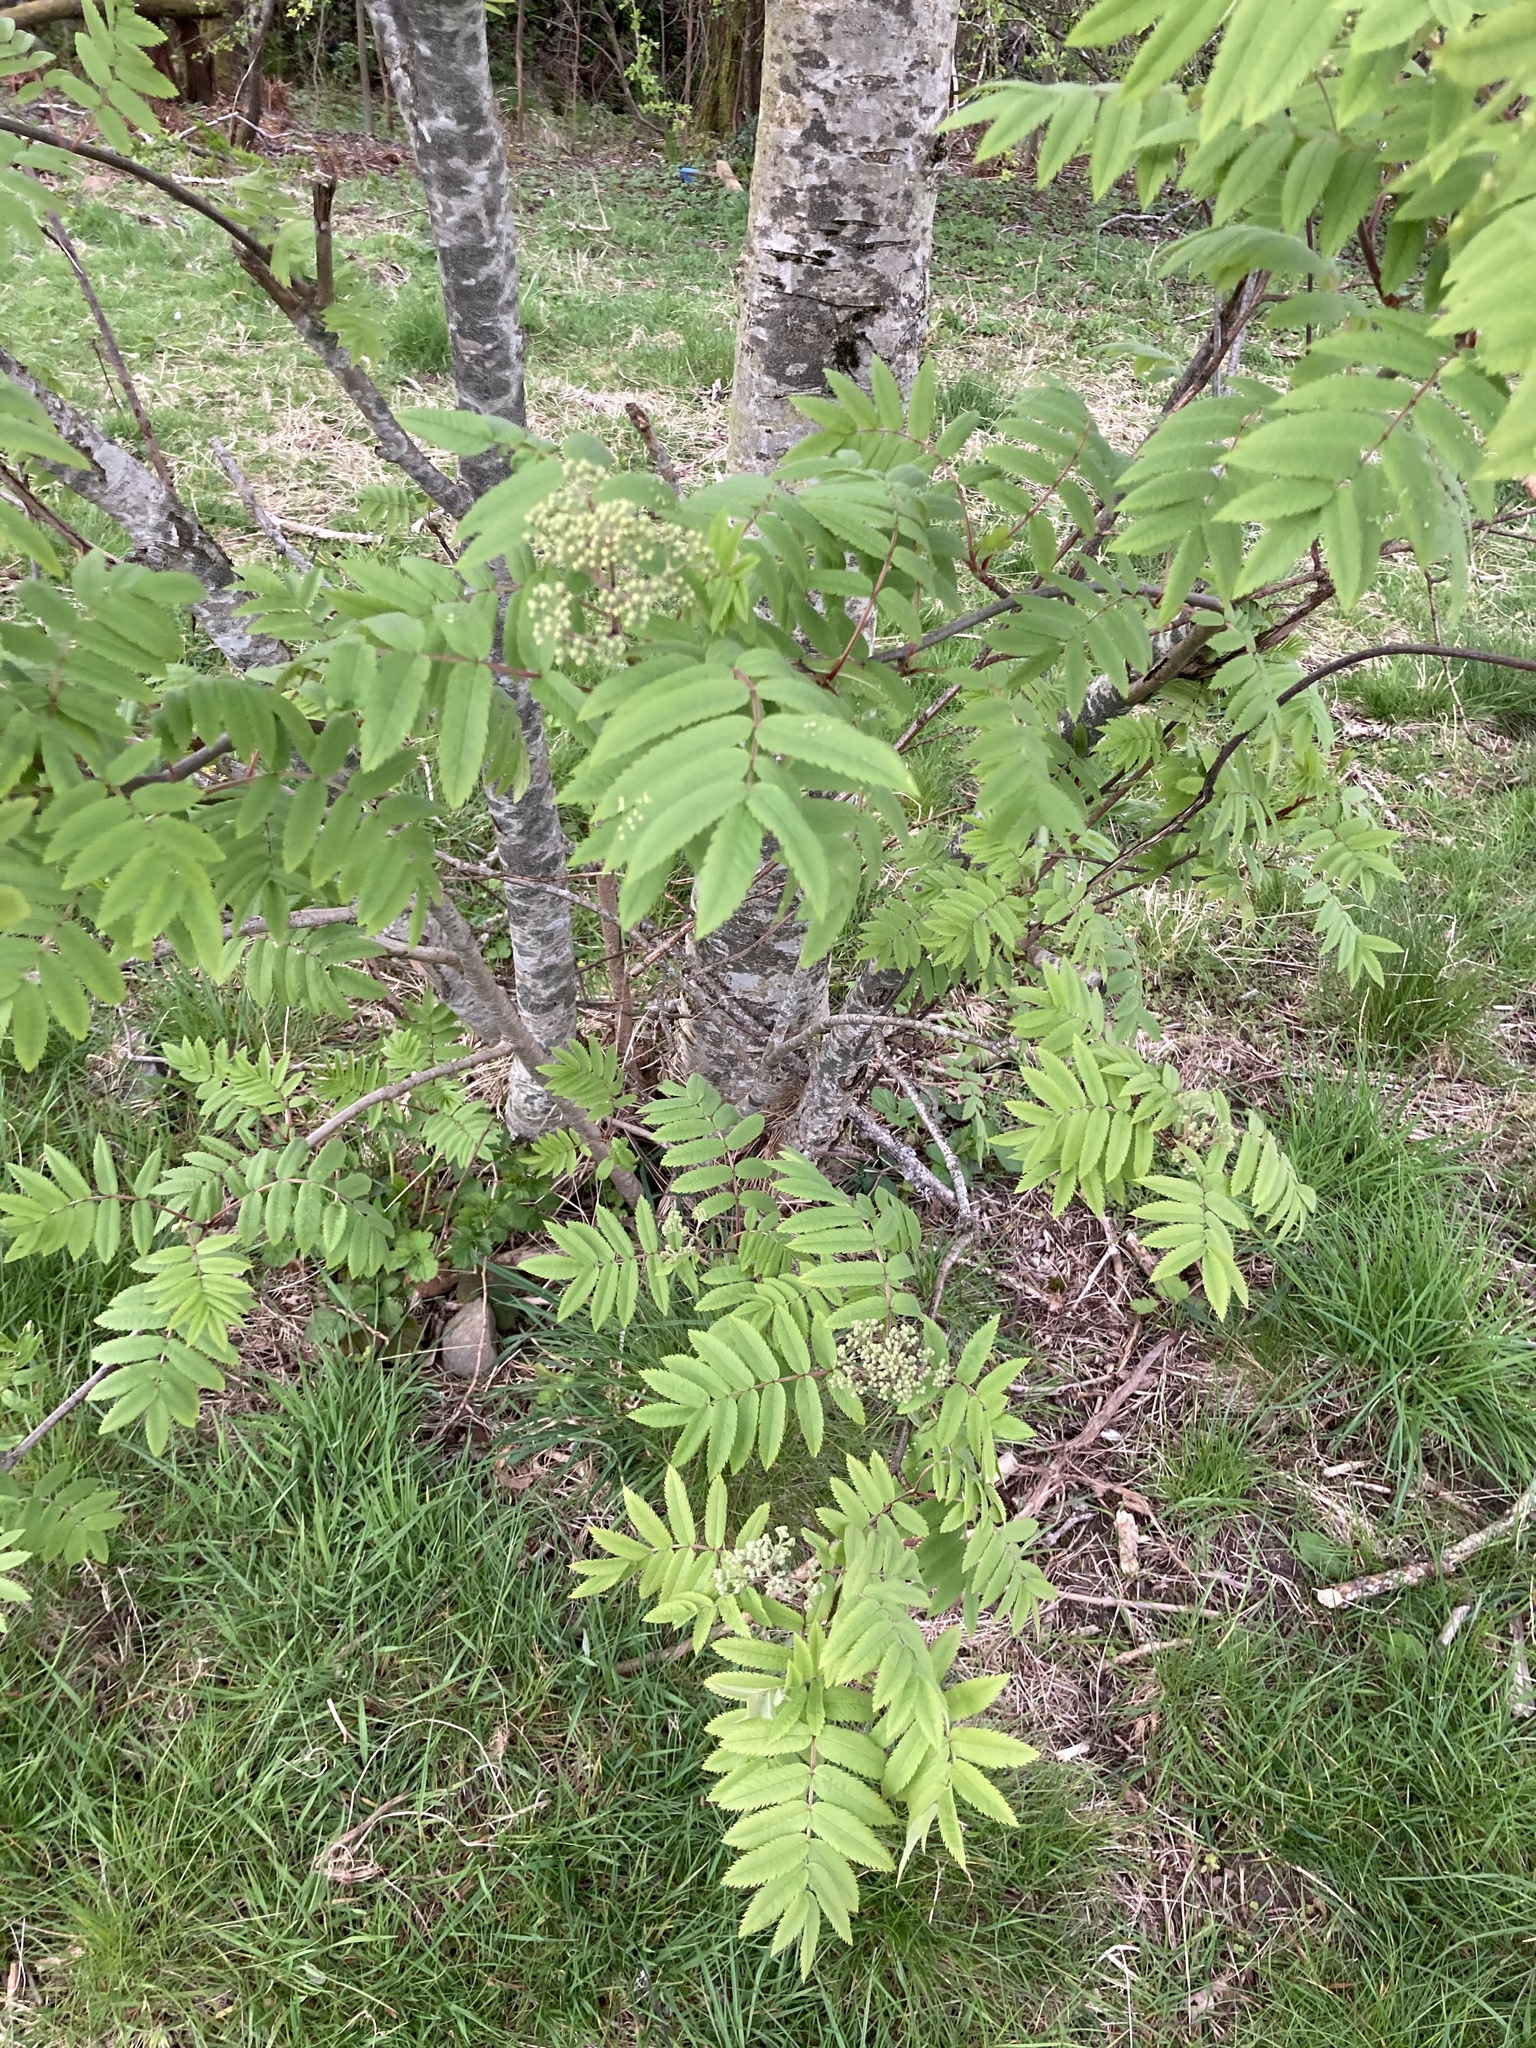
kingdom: Plantae
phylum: Tracheophyta
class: Magnoliopsida
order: Rosales
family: Rosaceae
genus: Sorbus
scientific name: Sorbus aucuparia
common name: Rowan
